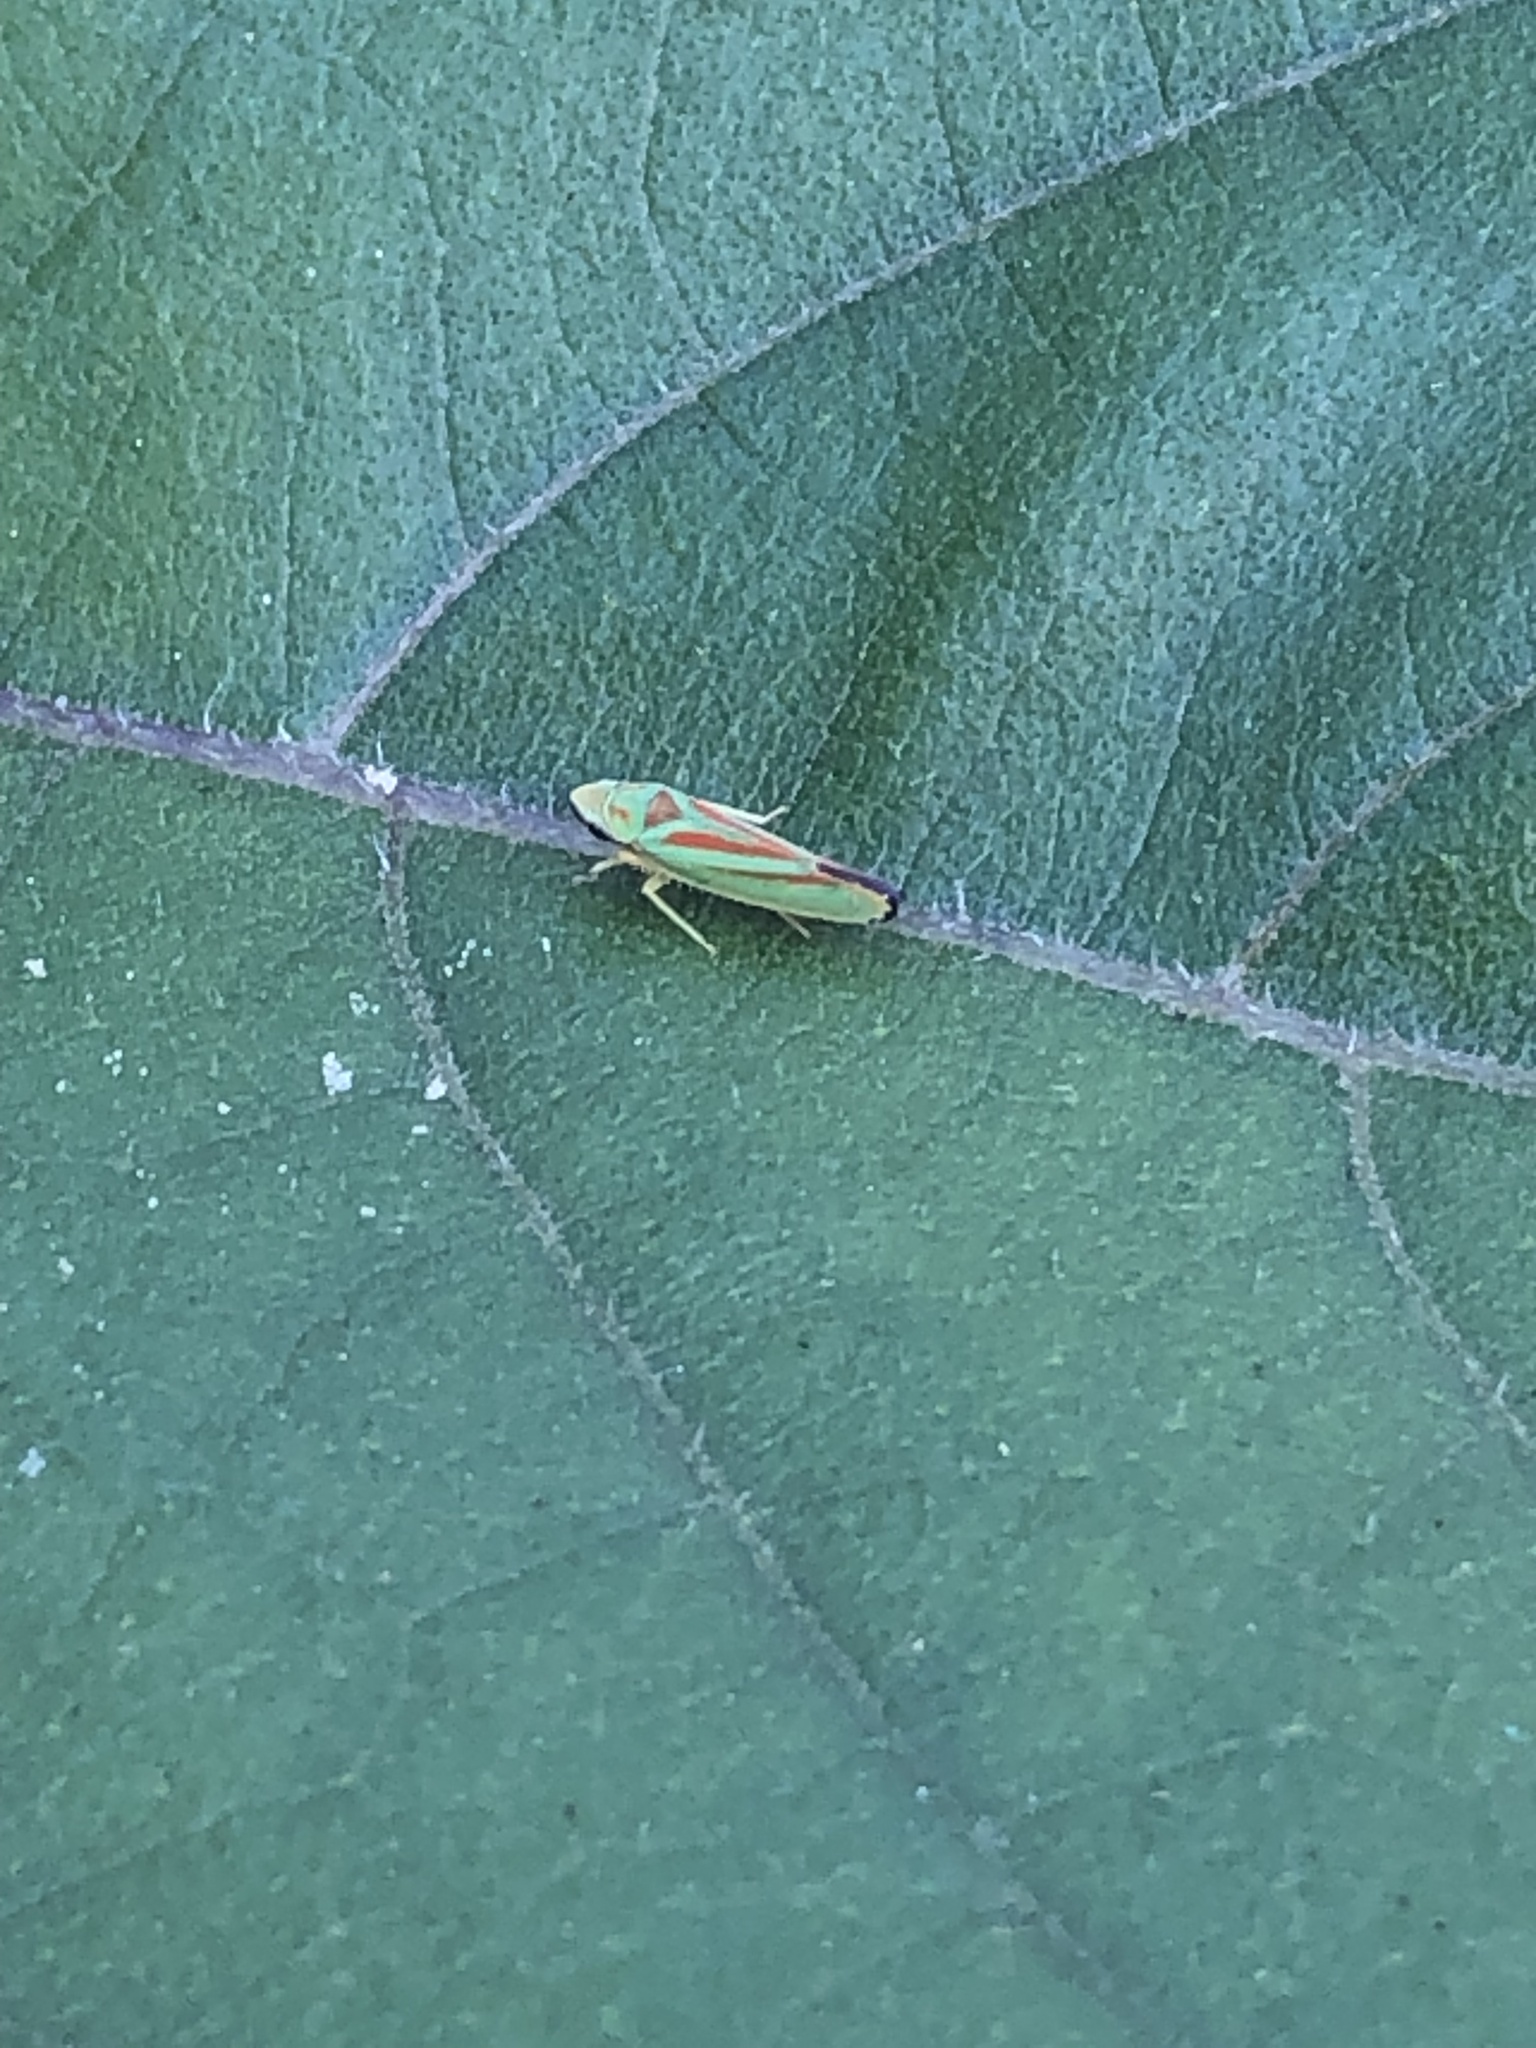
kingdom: Animalia
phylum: Arthropoda
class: Insecta
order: Hemiptera
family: Cicadellidae
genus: Graphocephala
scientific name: Graphocephala fennahi
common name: Rhododendron leafhopper
